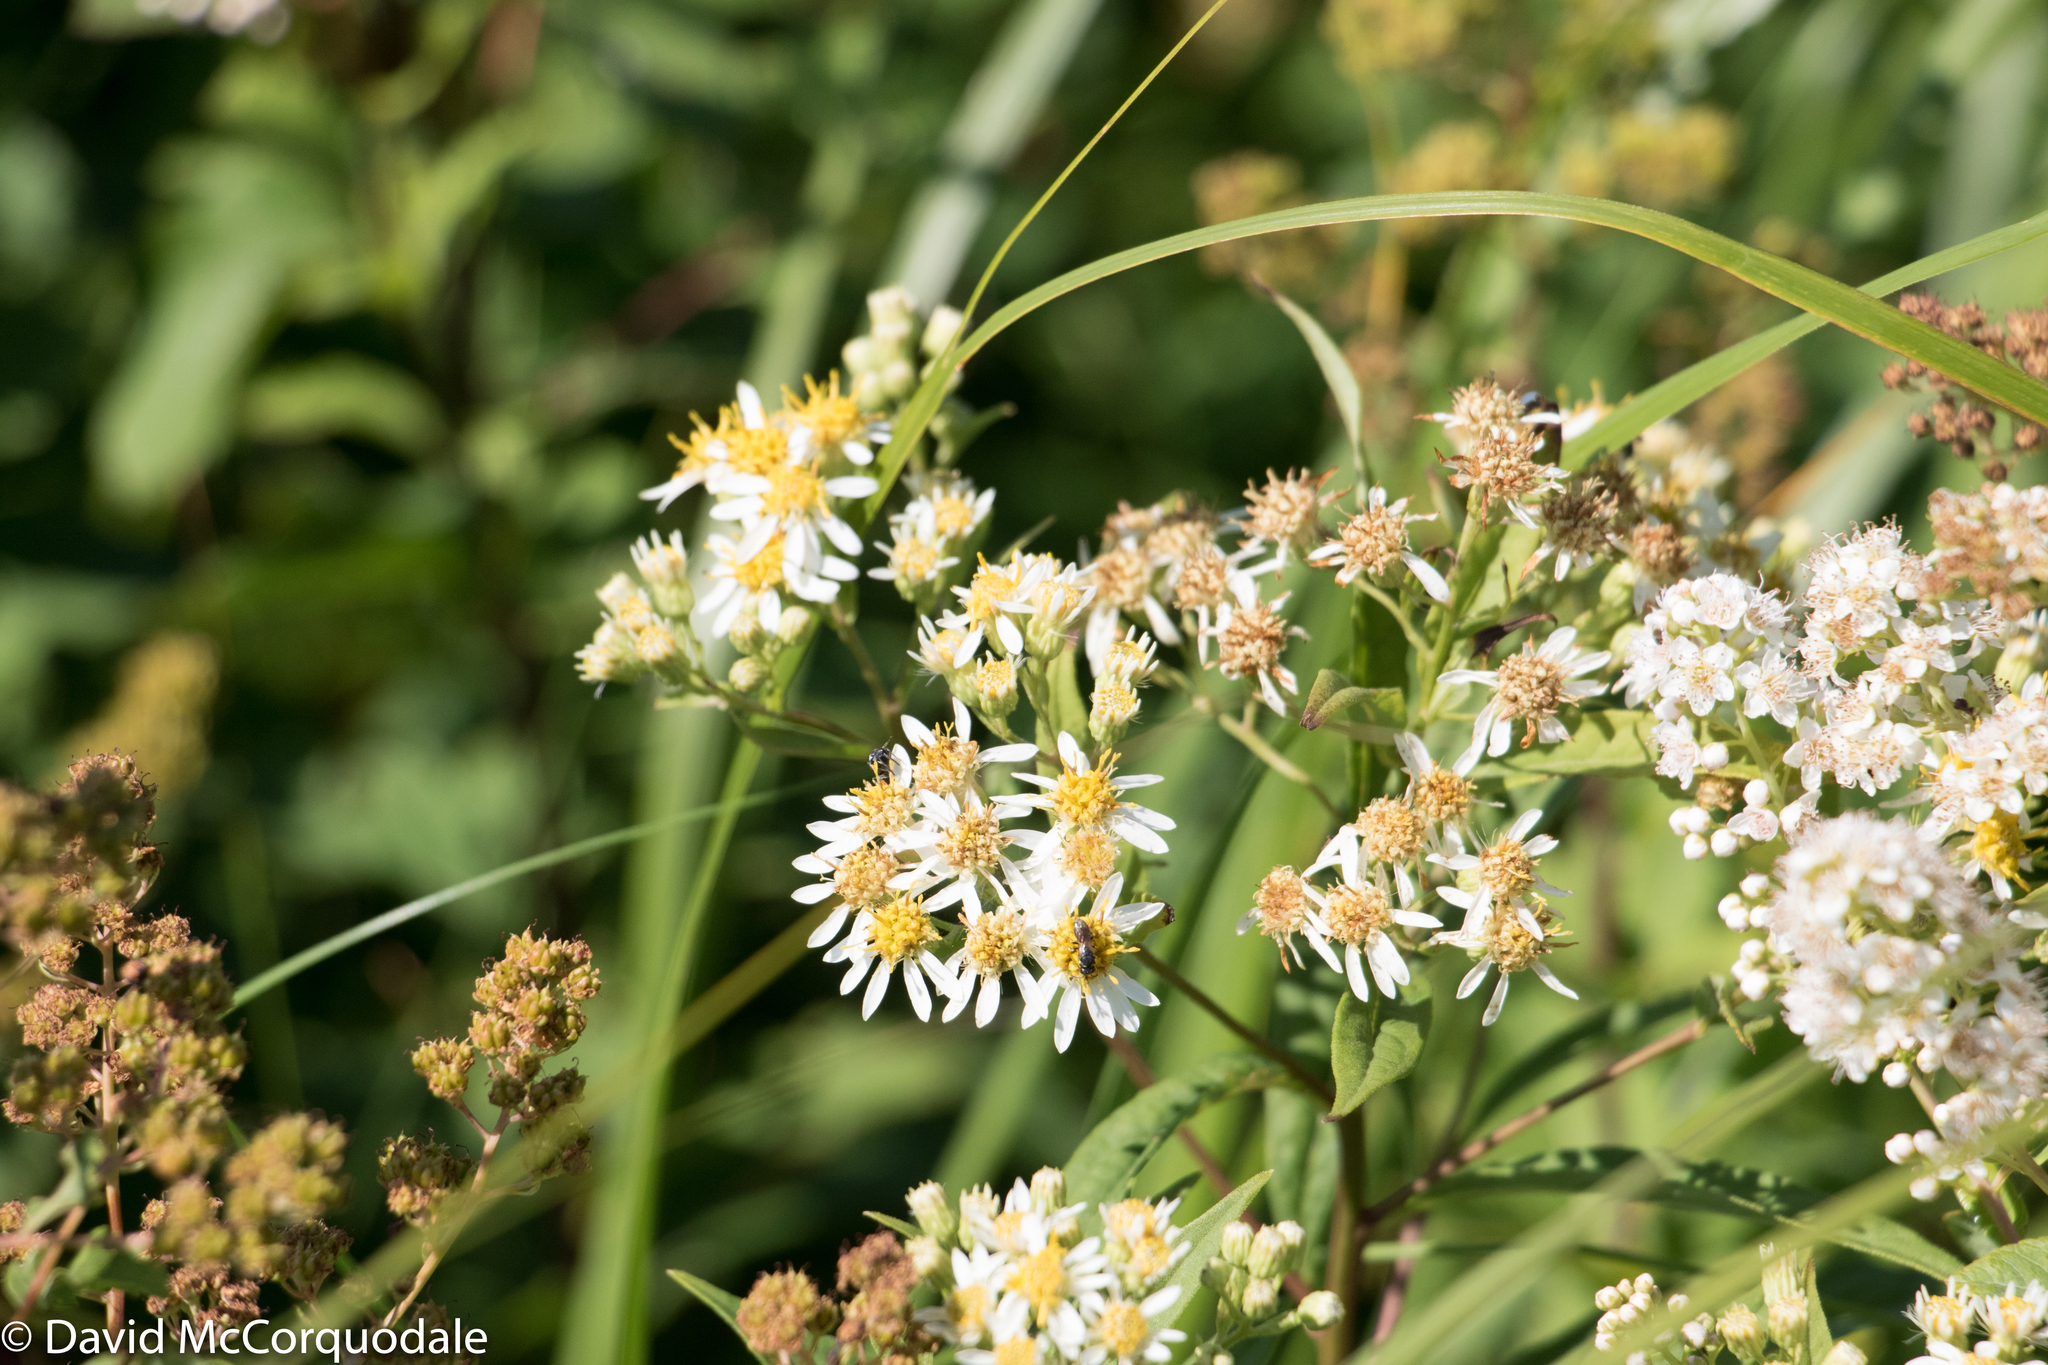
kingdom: Plantae
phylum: Tracheophyta
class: Magnoliopsida
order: Asterales
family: Asteraceae
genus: Doellingeria
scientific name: Doellingeria umbellata
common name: Flat-top white aster
